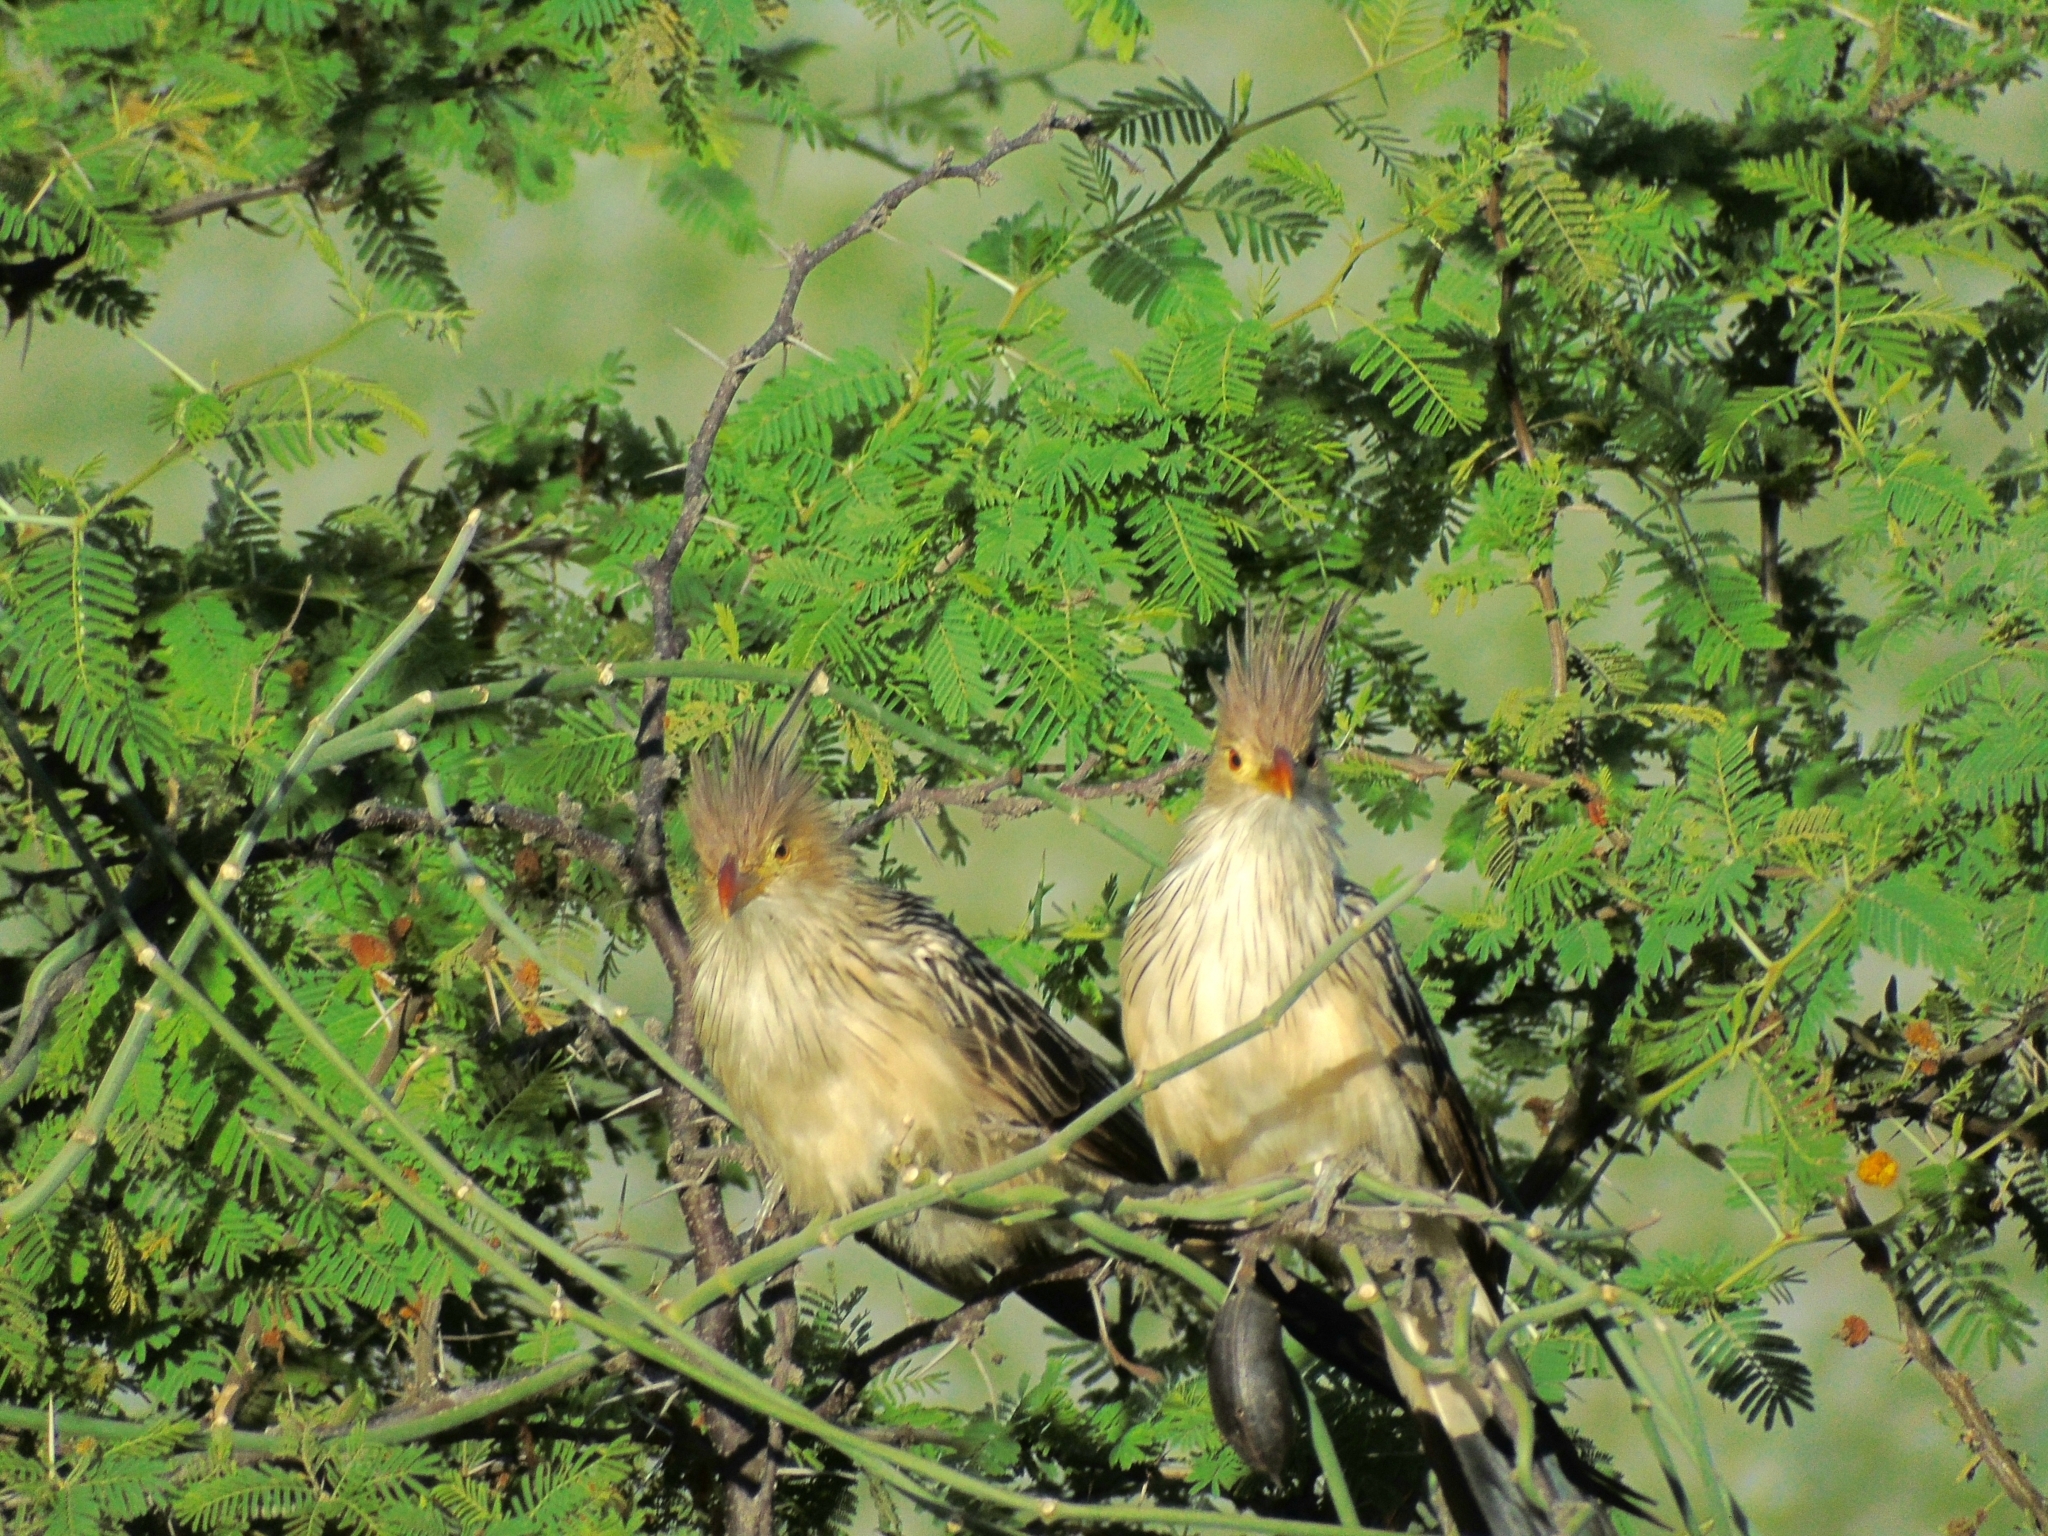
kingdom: Animalia
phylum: Chordata
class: Aves
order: Cuculiformes
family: Cuculidae
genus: Guira
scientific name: Guira guira
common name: Guira cuckoo
